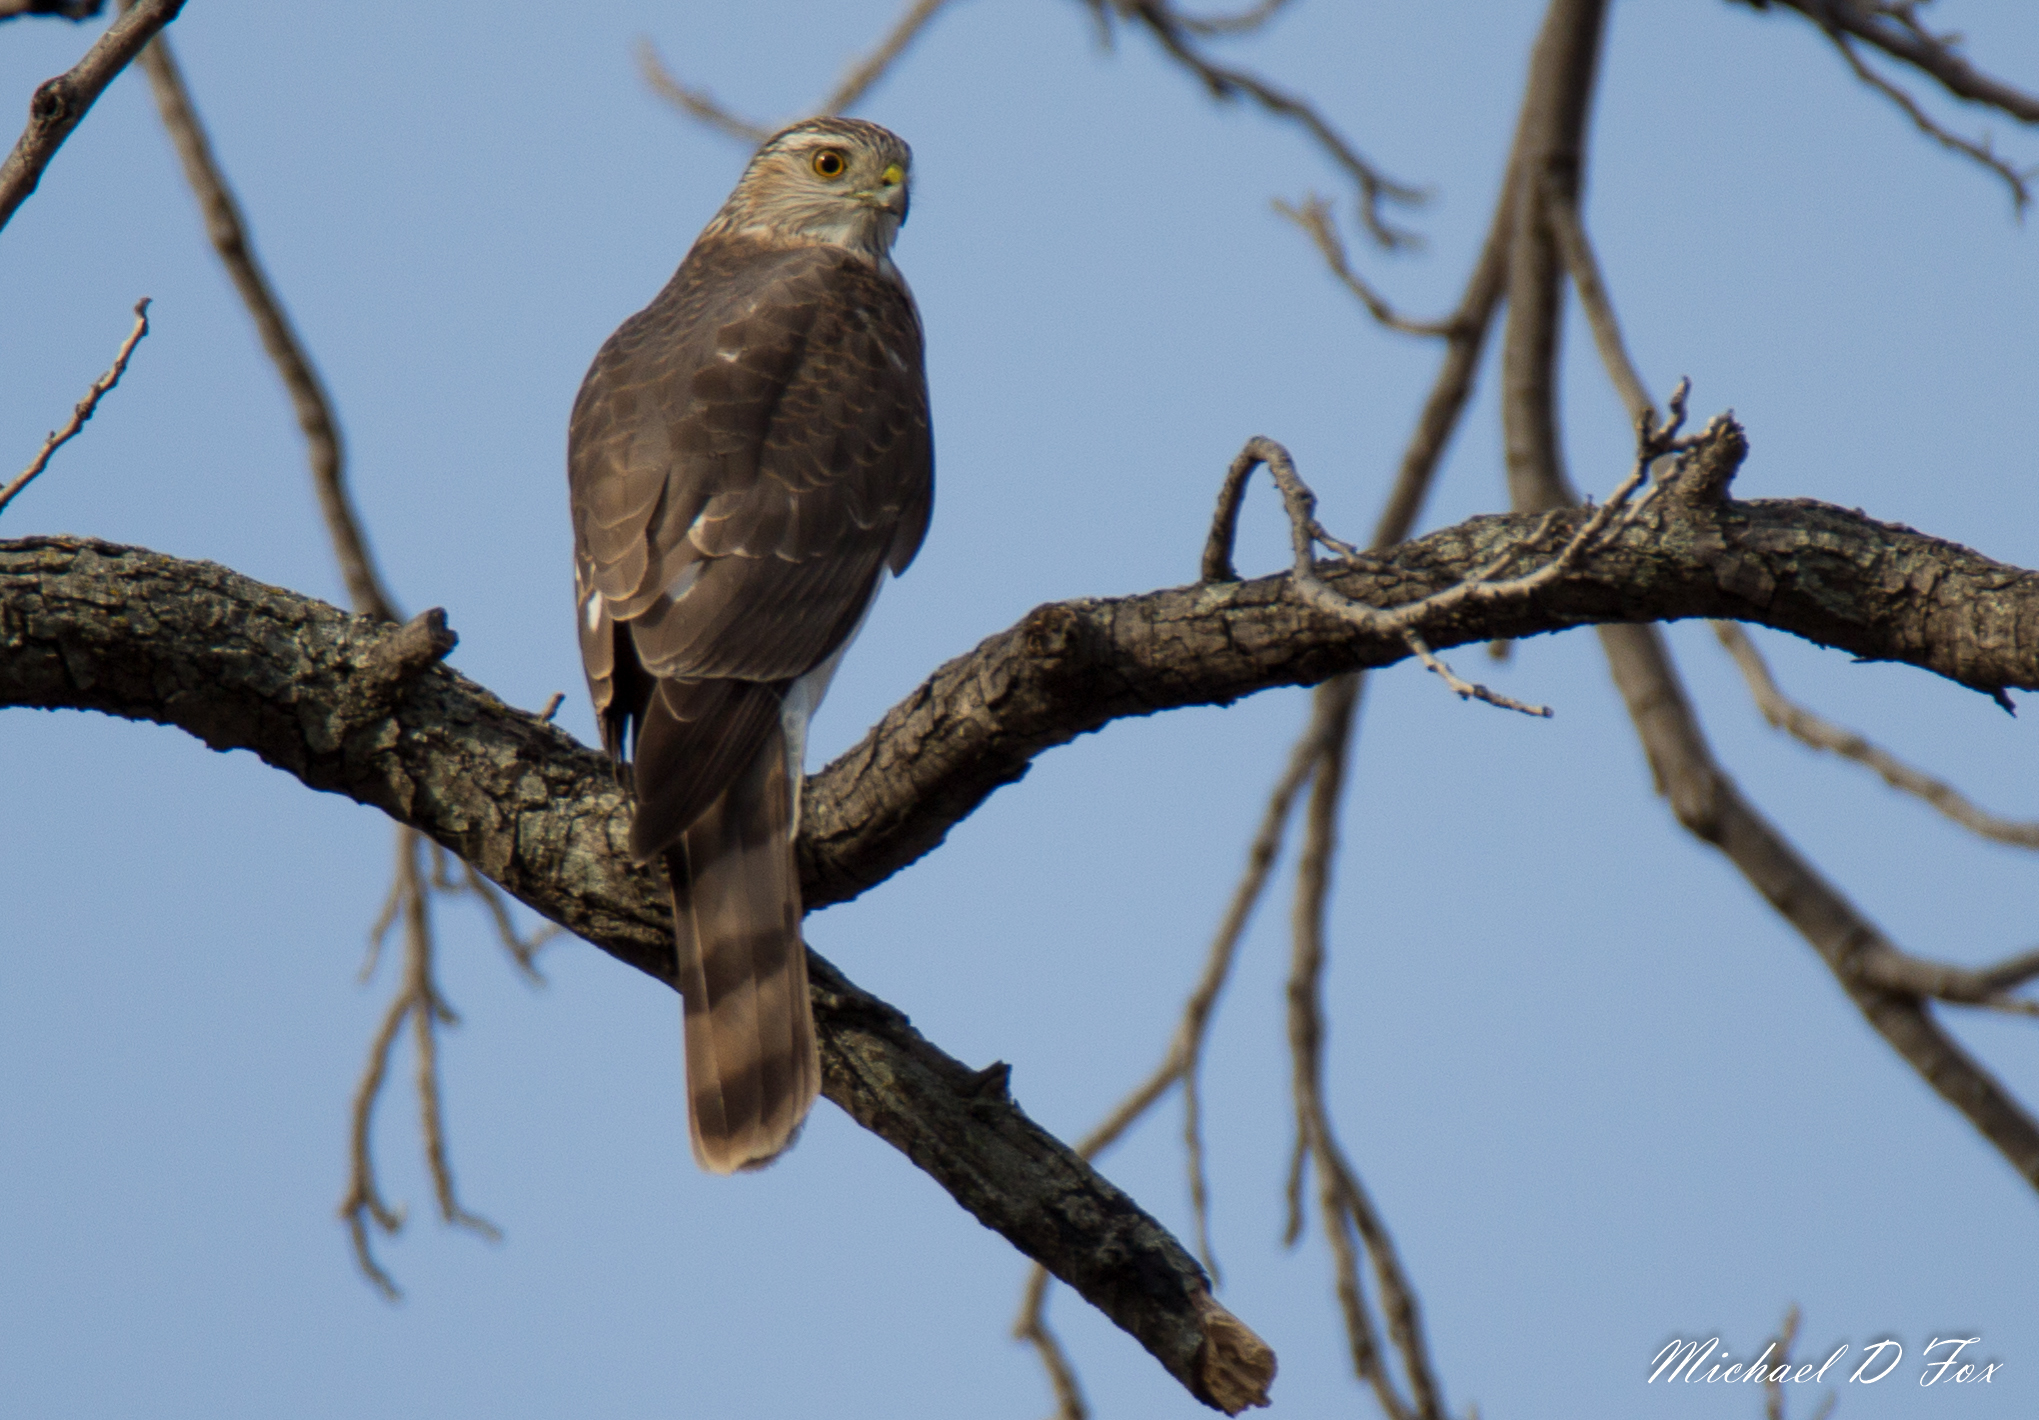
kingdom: Animalia
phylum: Chordata
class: Aves
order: Accipitriformes
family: Accipitridae
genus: Accipiter
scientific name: Accipiter striatus
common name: Sharp-shinned hawk
